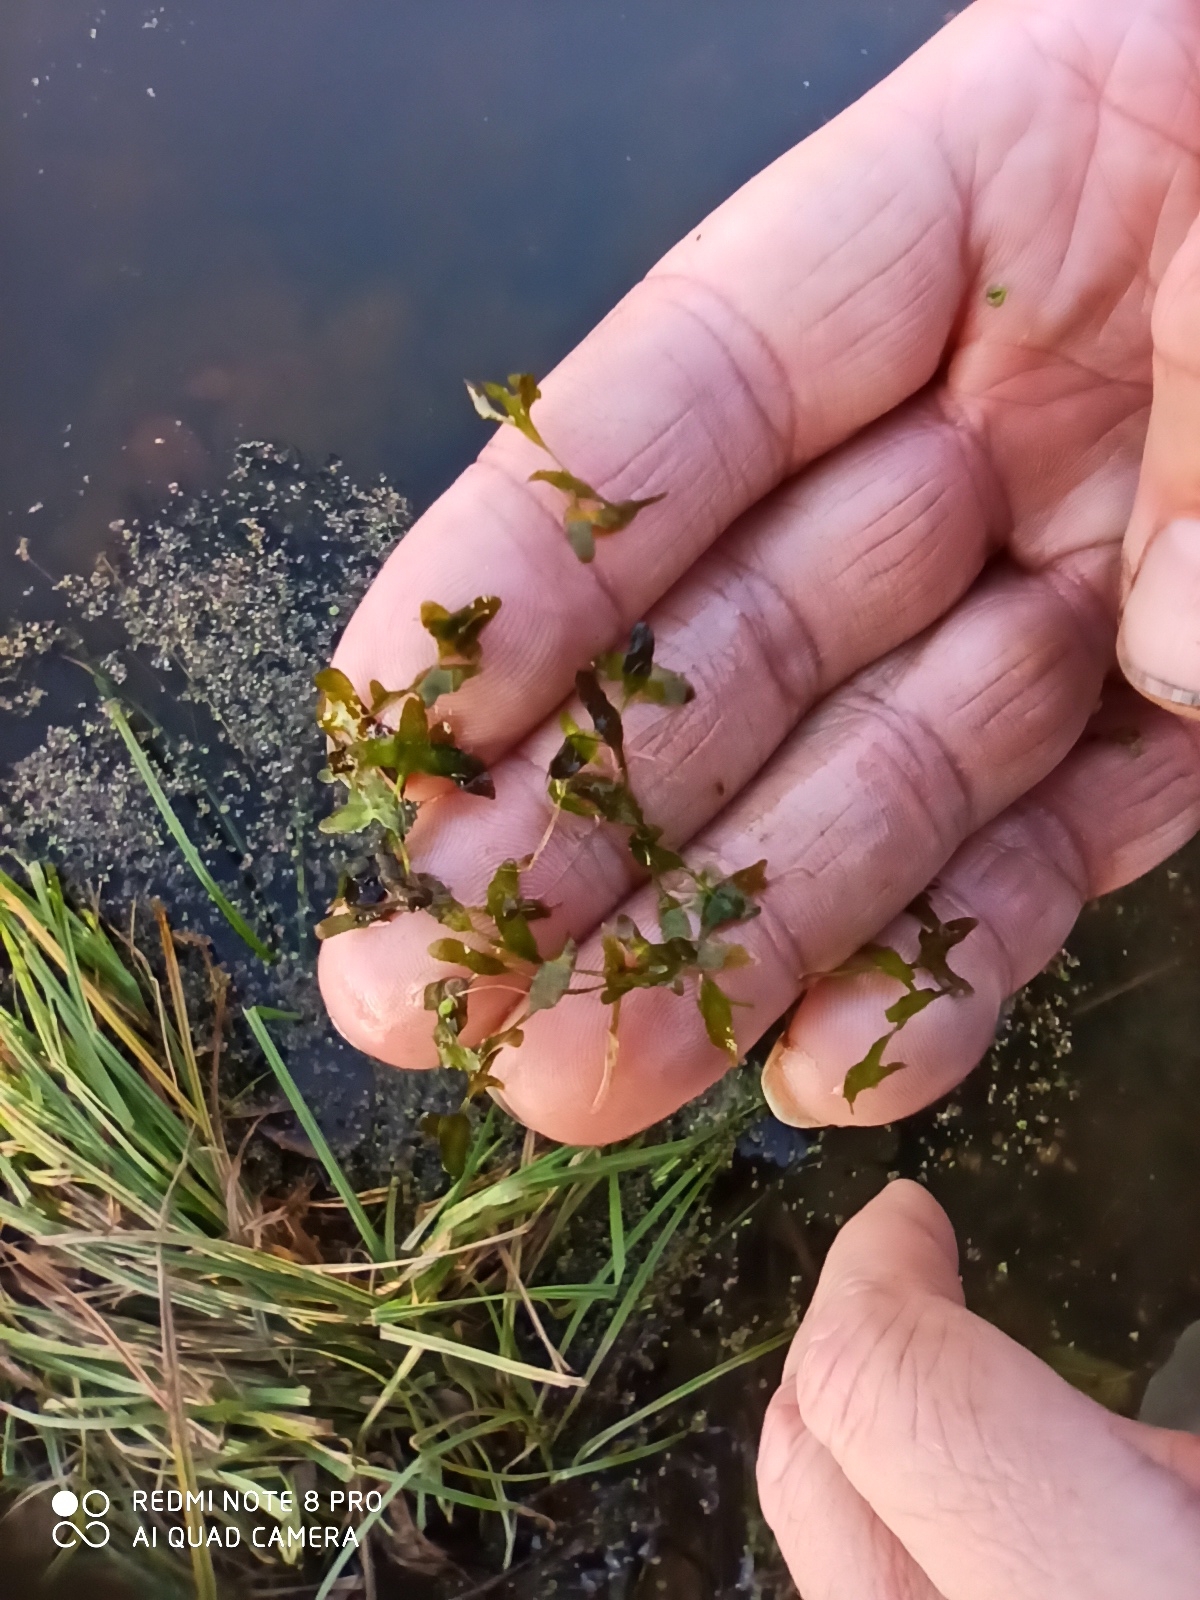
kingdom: Plantae
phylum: Tracheophyta
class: Liliopsida
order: Alismatales
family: Araceae
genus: Lemna
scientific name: Lemna trisulca
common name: Ivy-leaved duckweed
